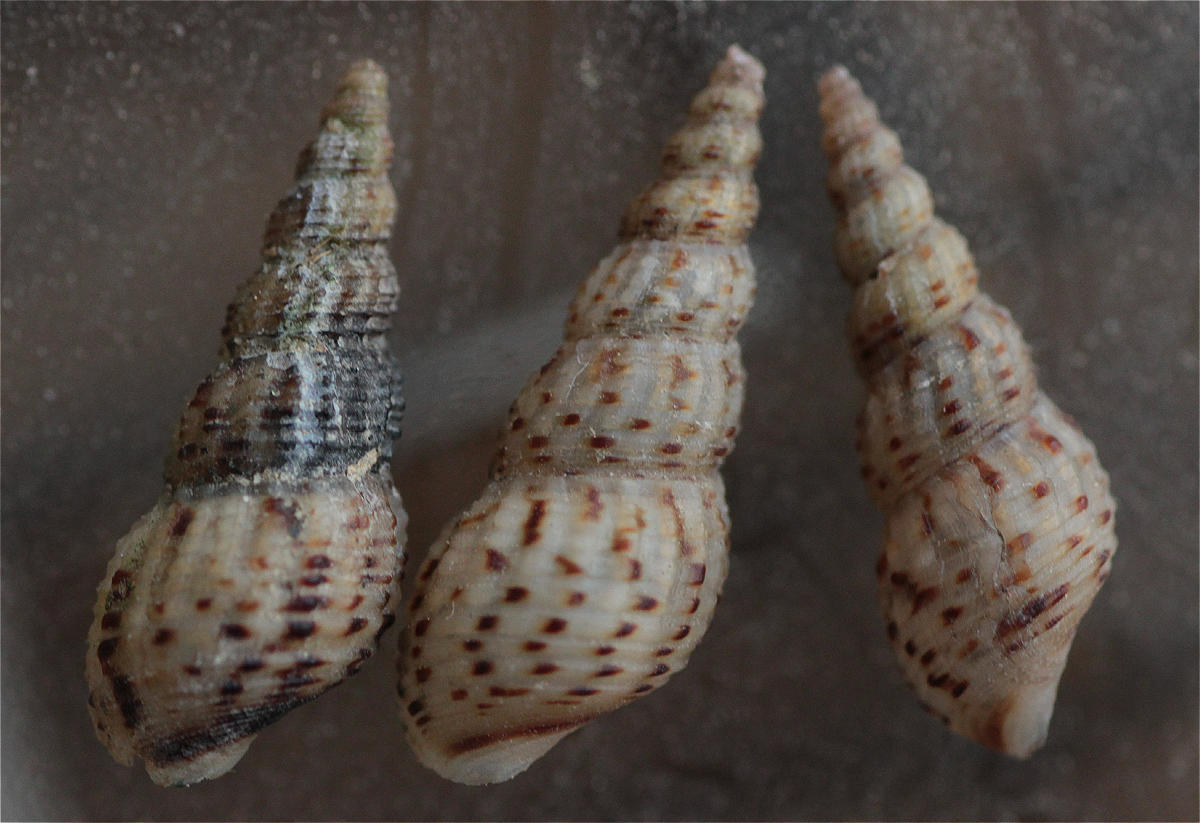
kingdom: Animalia
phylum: Mollusca
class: Gastropoda
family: Thiaridae
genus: Melanoides
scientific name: Melanoides tuberculata
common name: Red-rim melania
